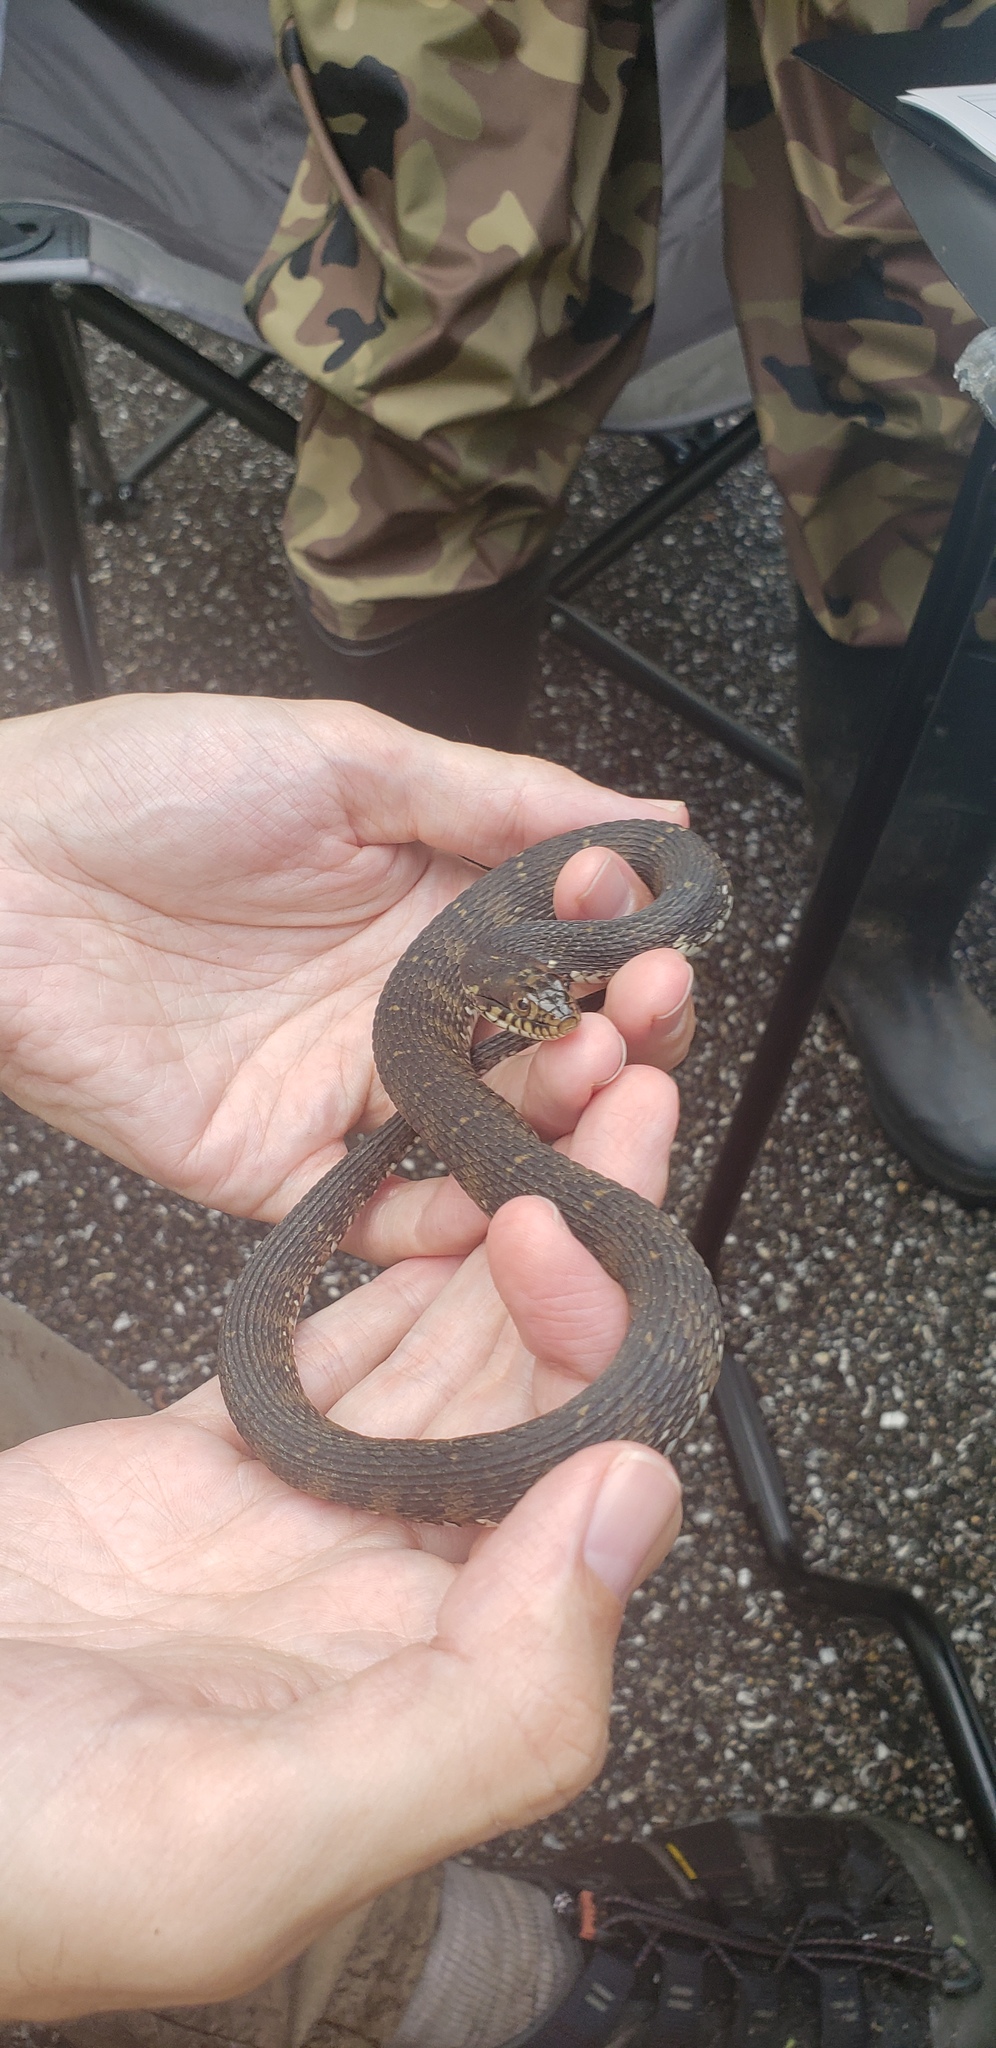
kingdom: Animalia
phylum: Chordata
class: Squamata
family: Colubridae
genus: Nerodia
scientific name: Nerodia fasciata
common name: Southern water snake
